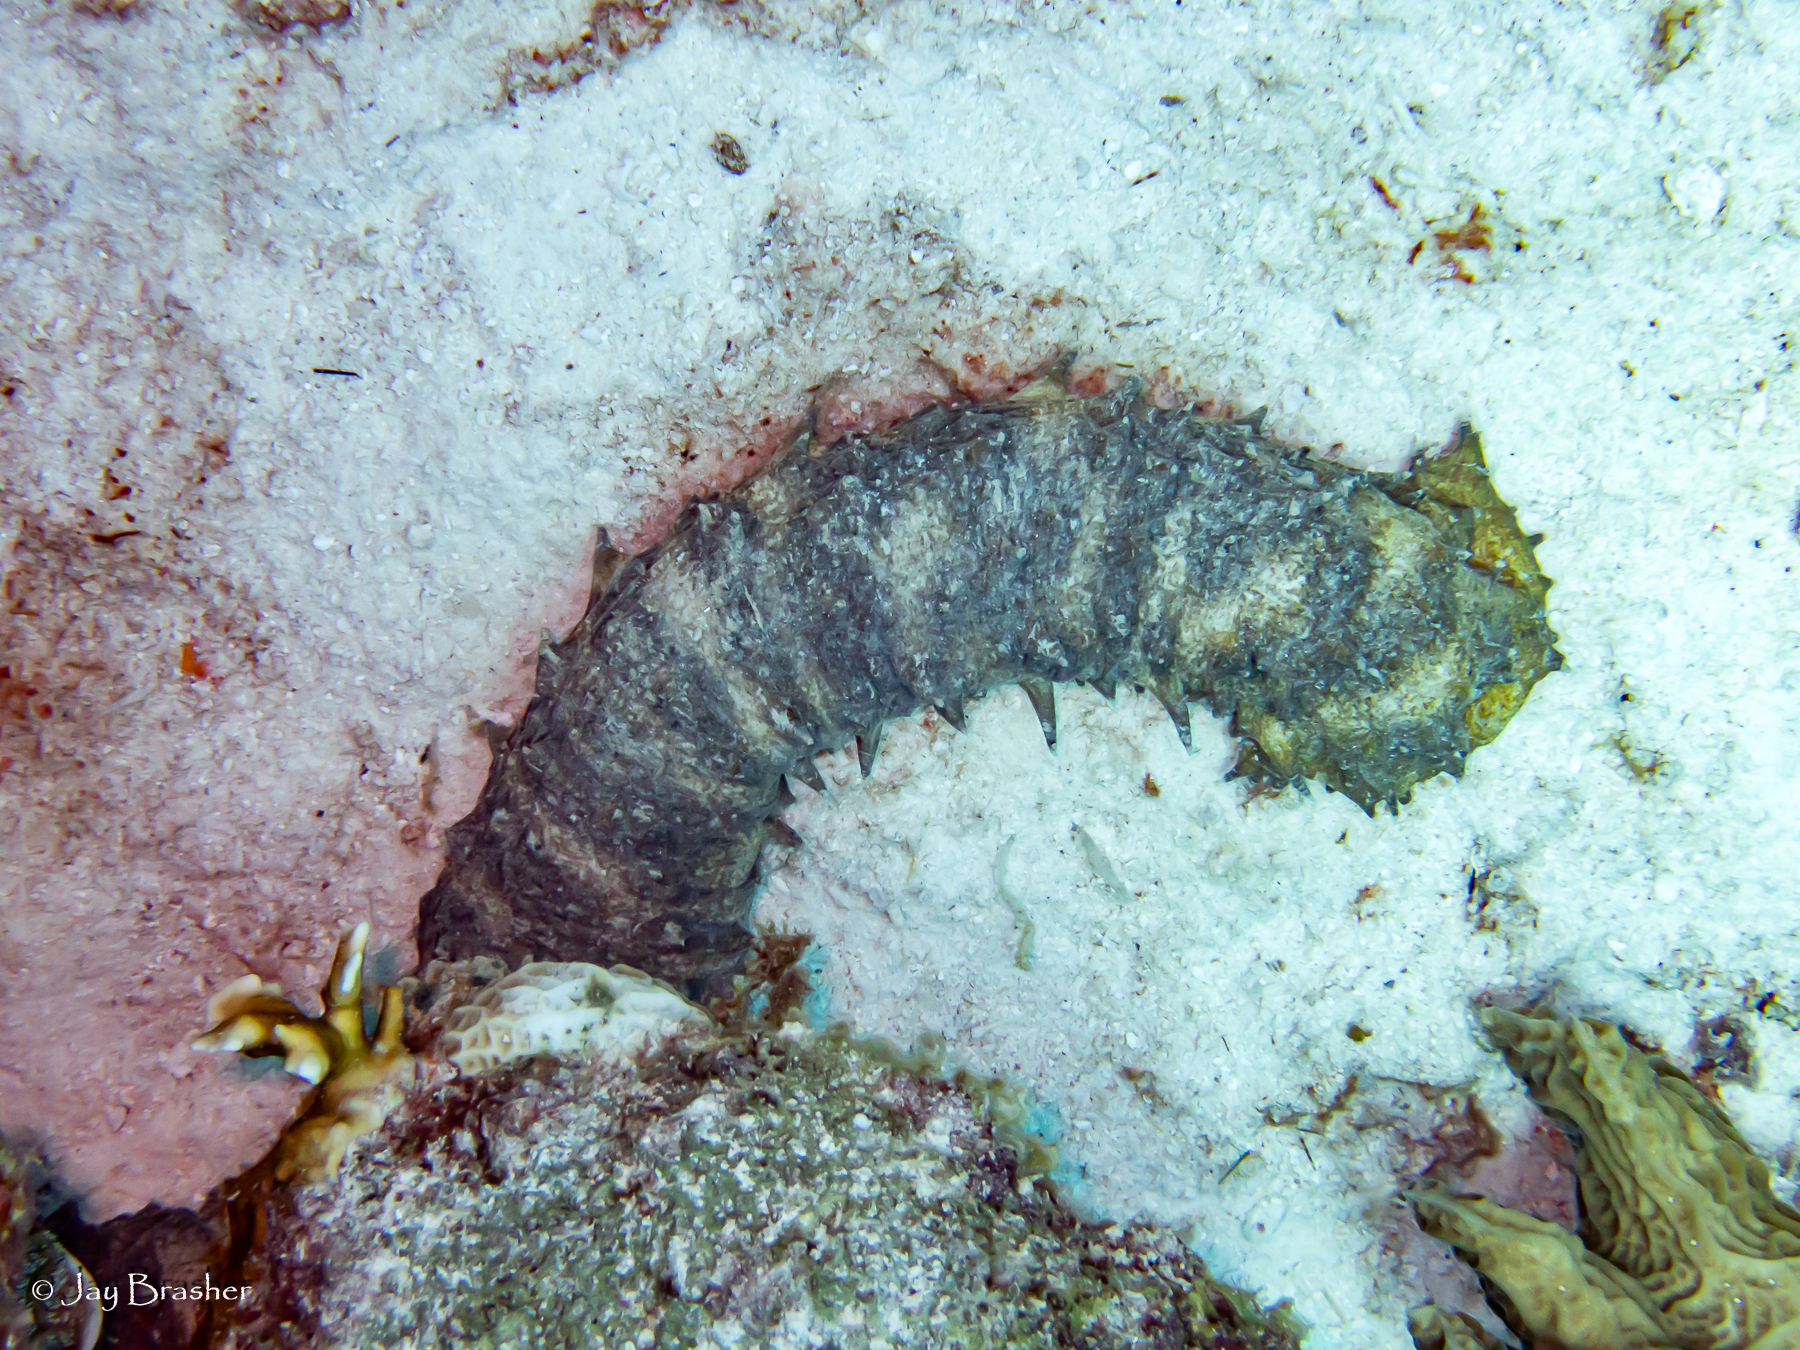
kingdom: Animalia
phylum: Echinodermata
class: Holothuroidea
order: Holothuriida
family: Holothuriidae
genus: Holothuria
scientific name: Holothuria thomasi
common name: Tiger tail sea cocumber
